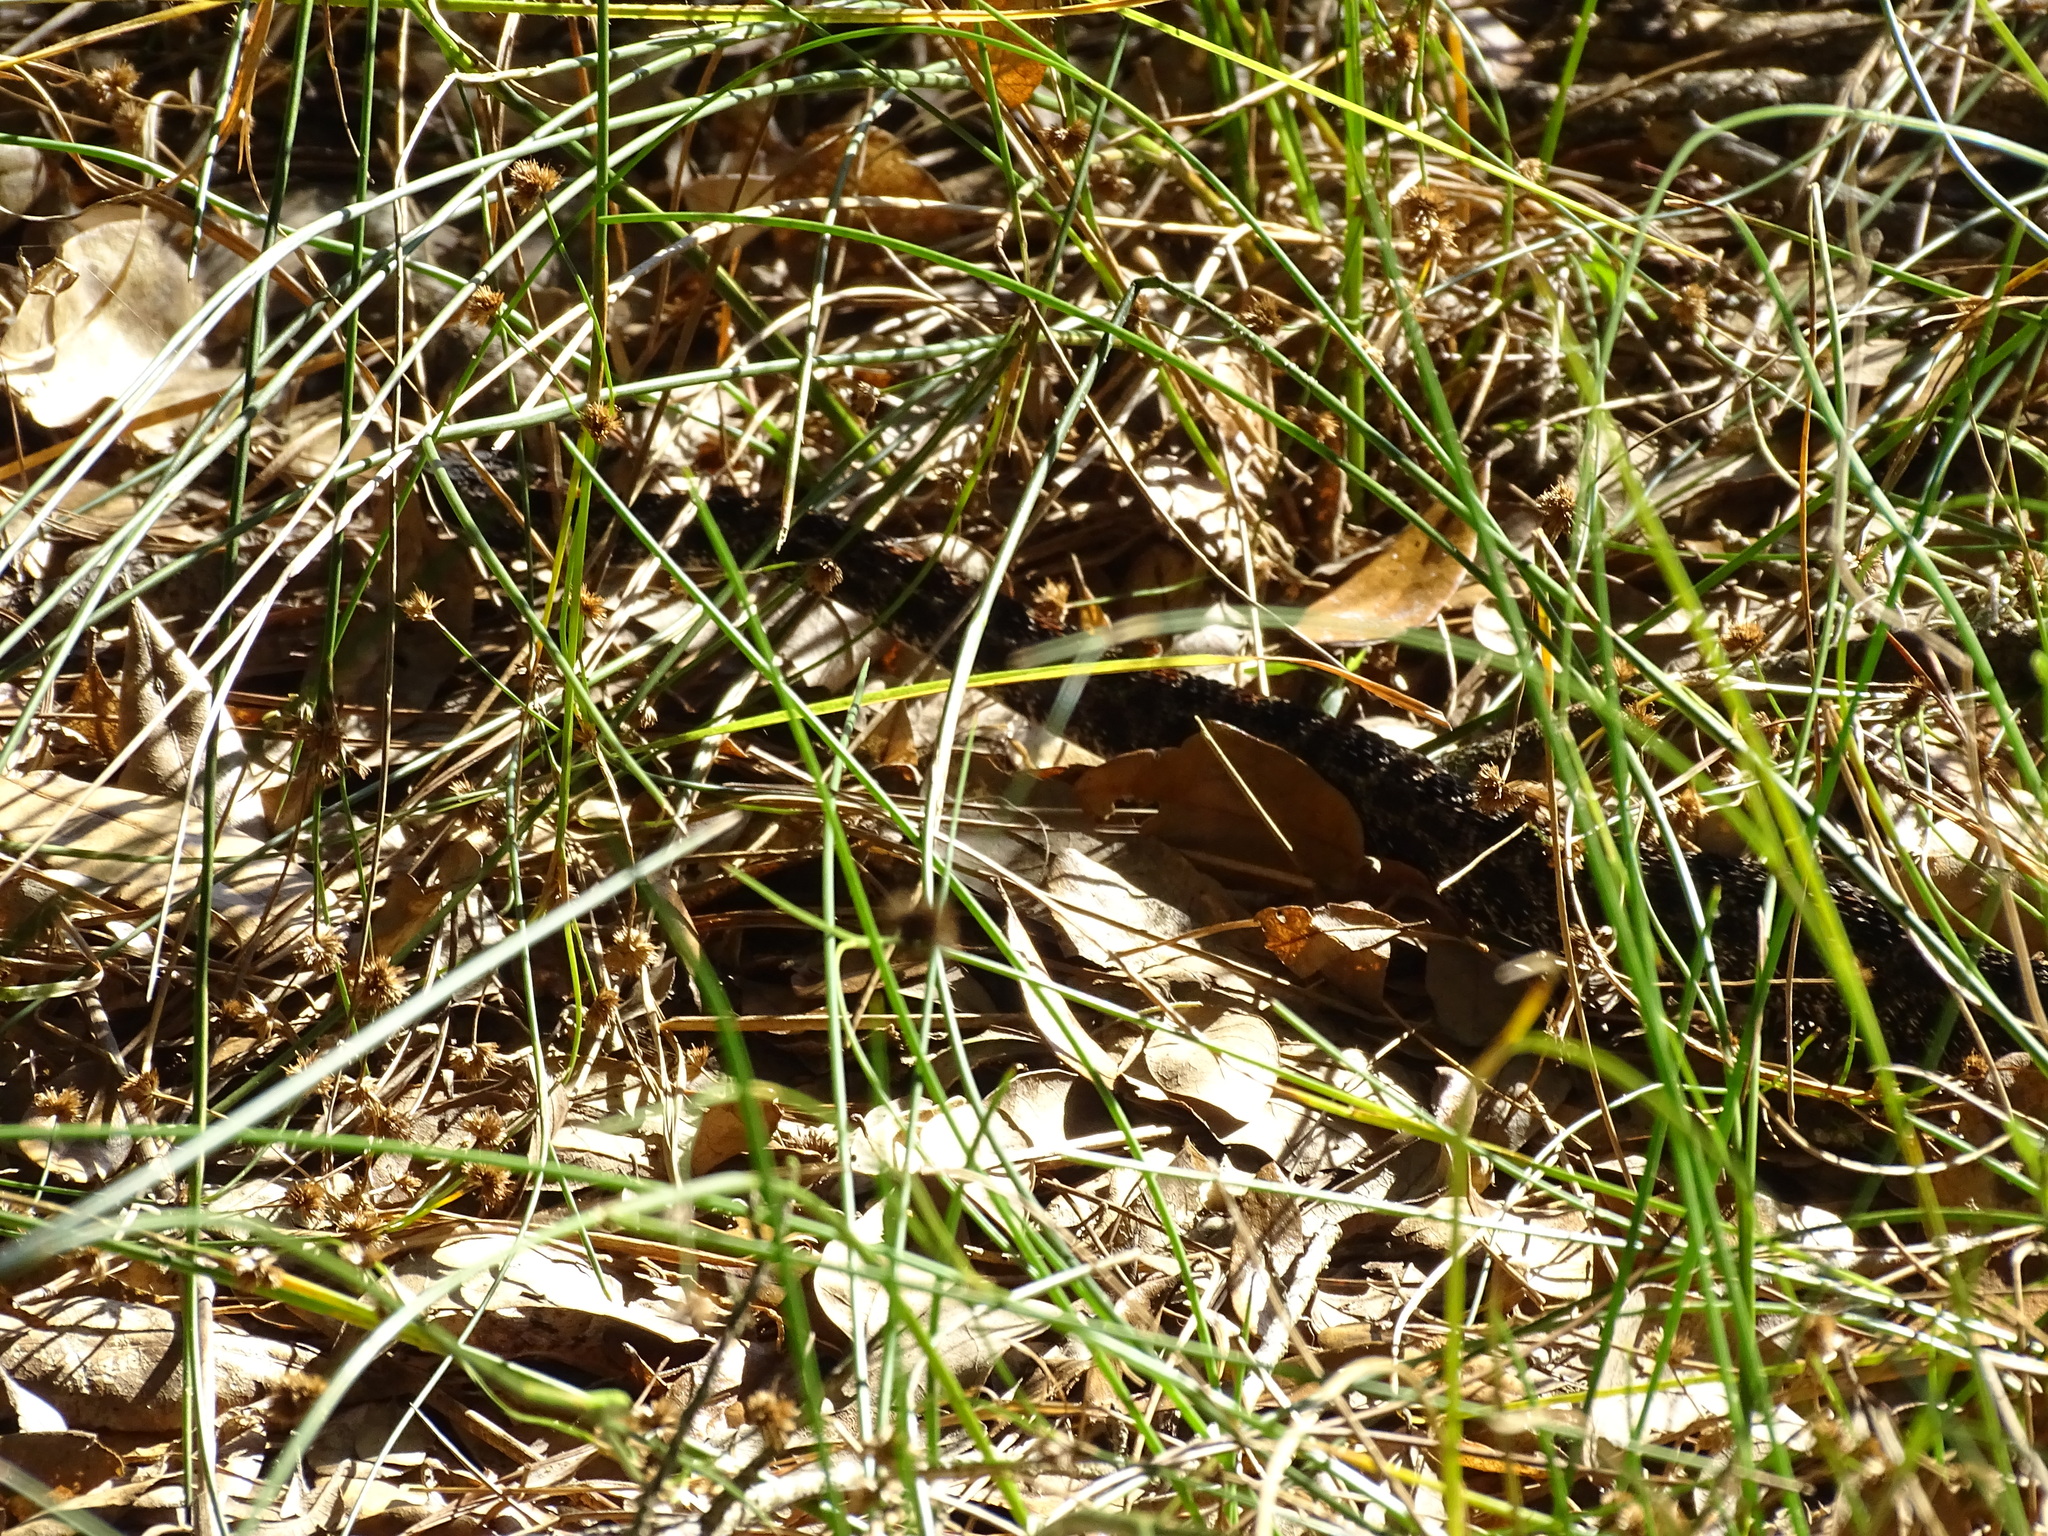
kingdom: Animalia
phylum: Chordata
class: Squamata
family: Viperidae
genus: Sistrurus
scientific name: Sistrurus miliarius
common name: Pygmy rattlesnake
